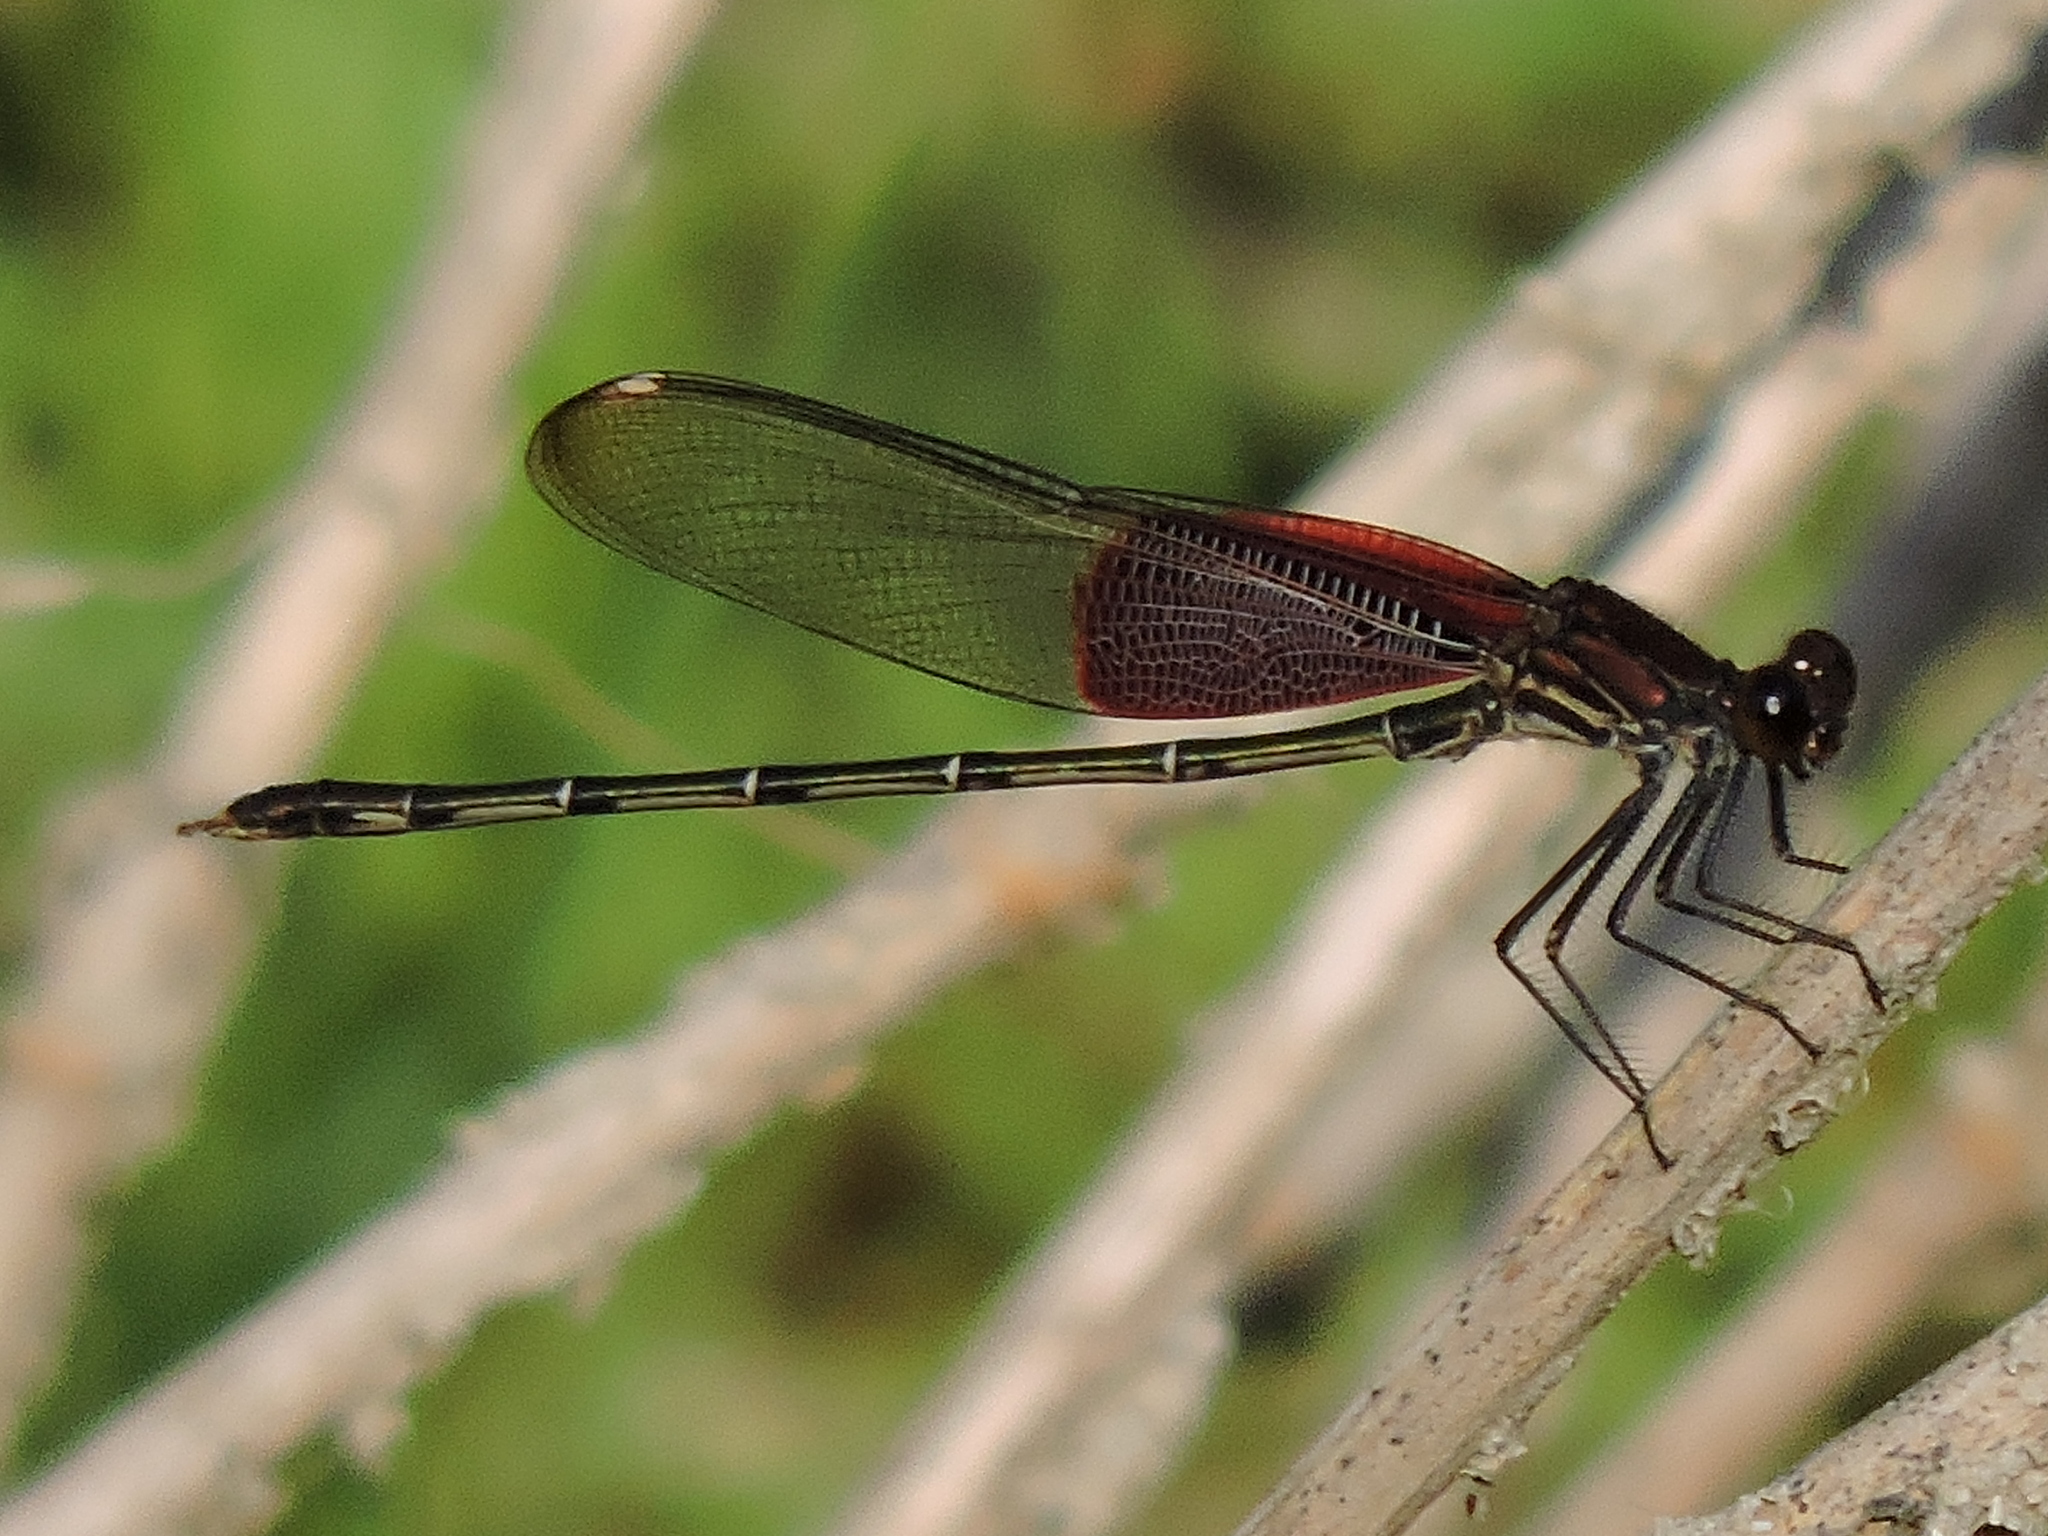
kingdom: Animalia
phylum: Arthropoda
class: Insecta
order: Odonata
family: Calopterygidae
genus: Hetaerina
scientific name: Hetaerina americana
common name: American rubyspot
